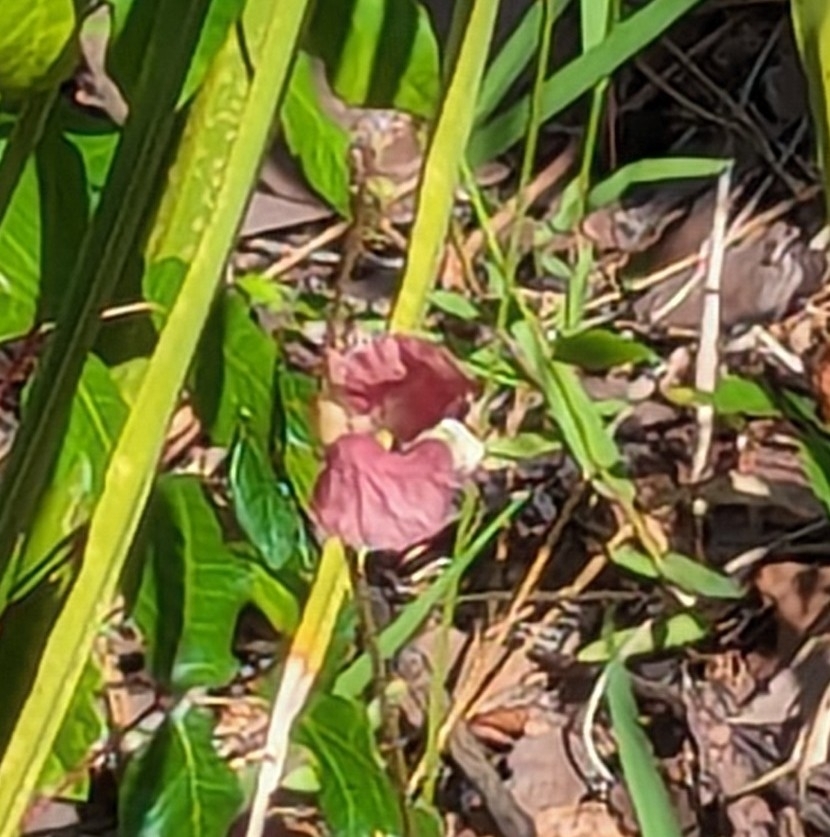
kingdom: Plantae
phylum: Tracheophyta
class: Magnoliopsida
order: Fabales
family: Fabaceae
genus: Macroptilium
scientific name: Macroptilium lathyroides
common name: Wild bushbean
